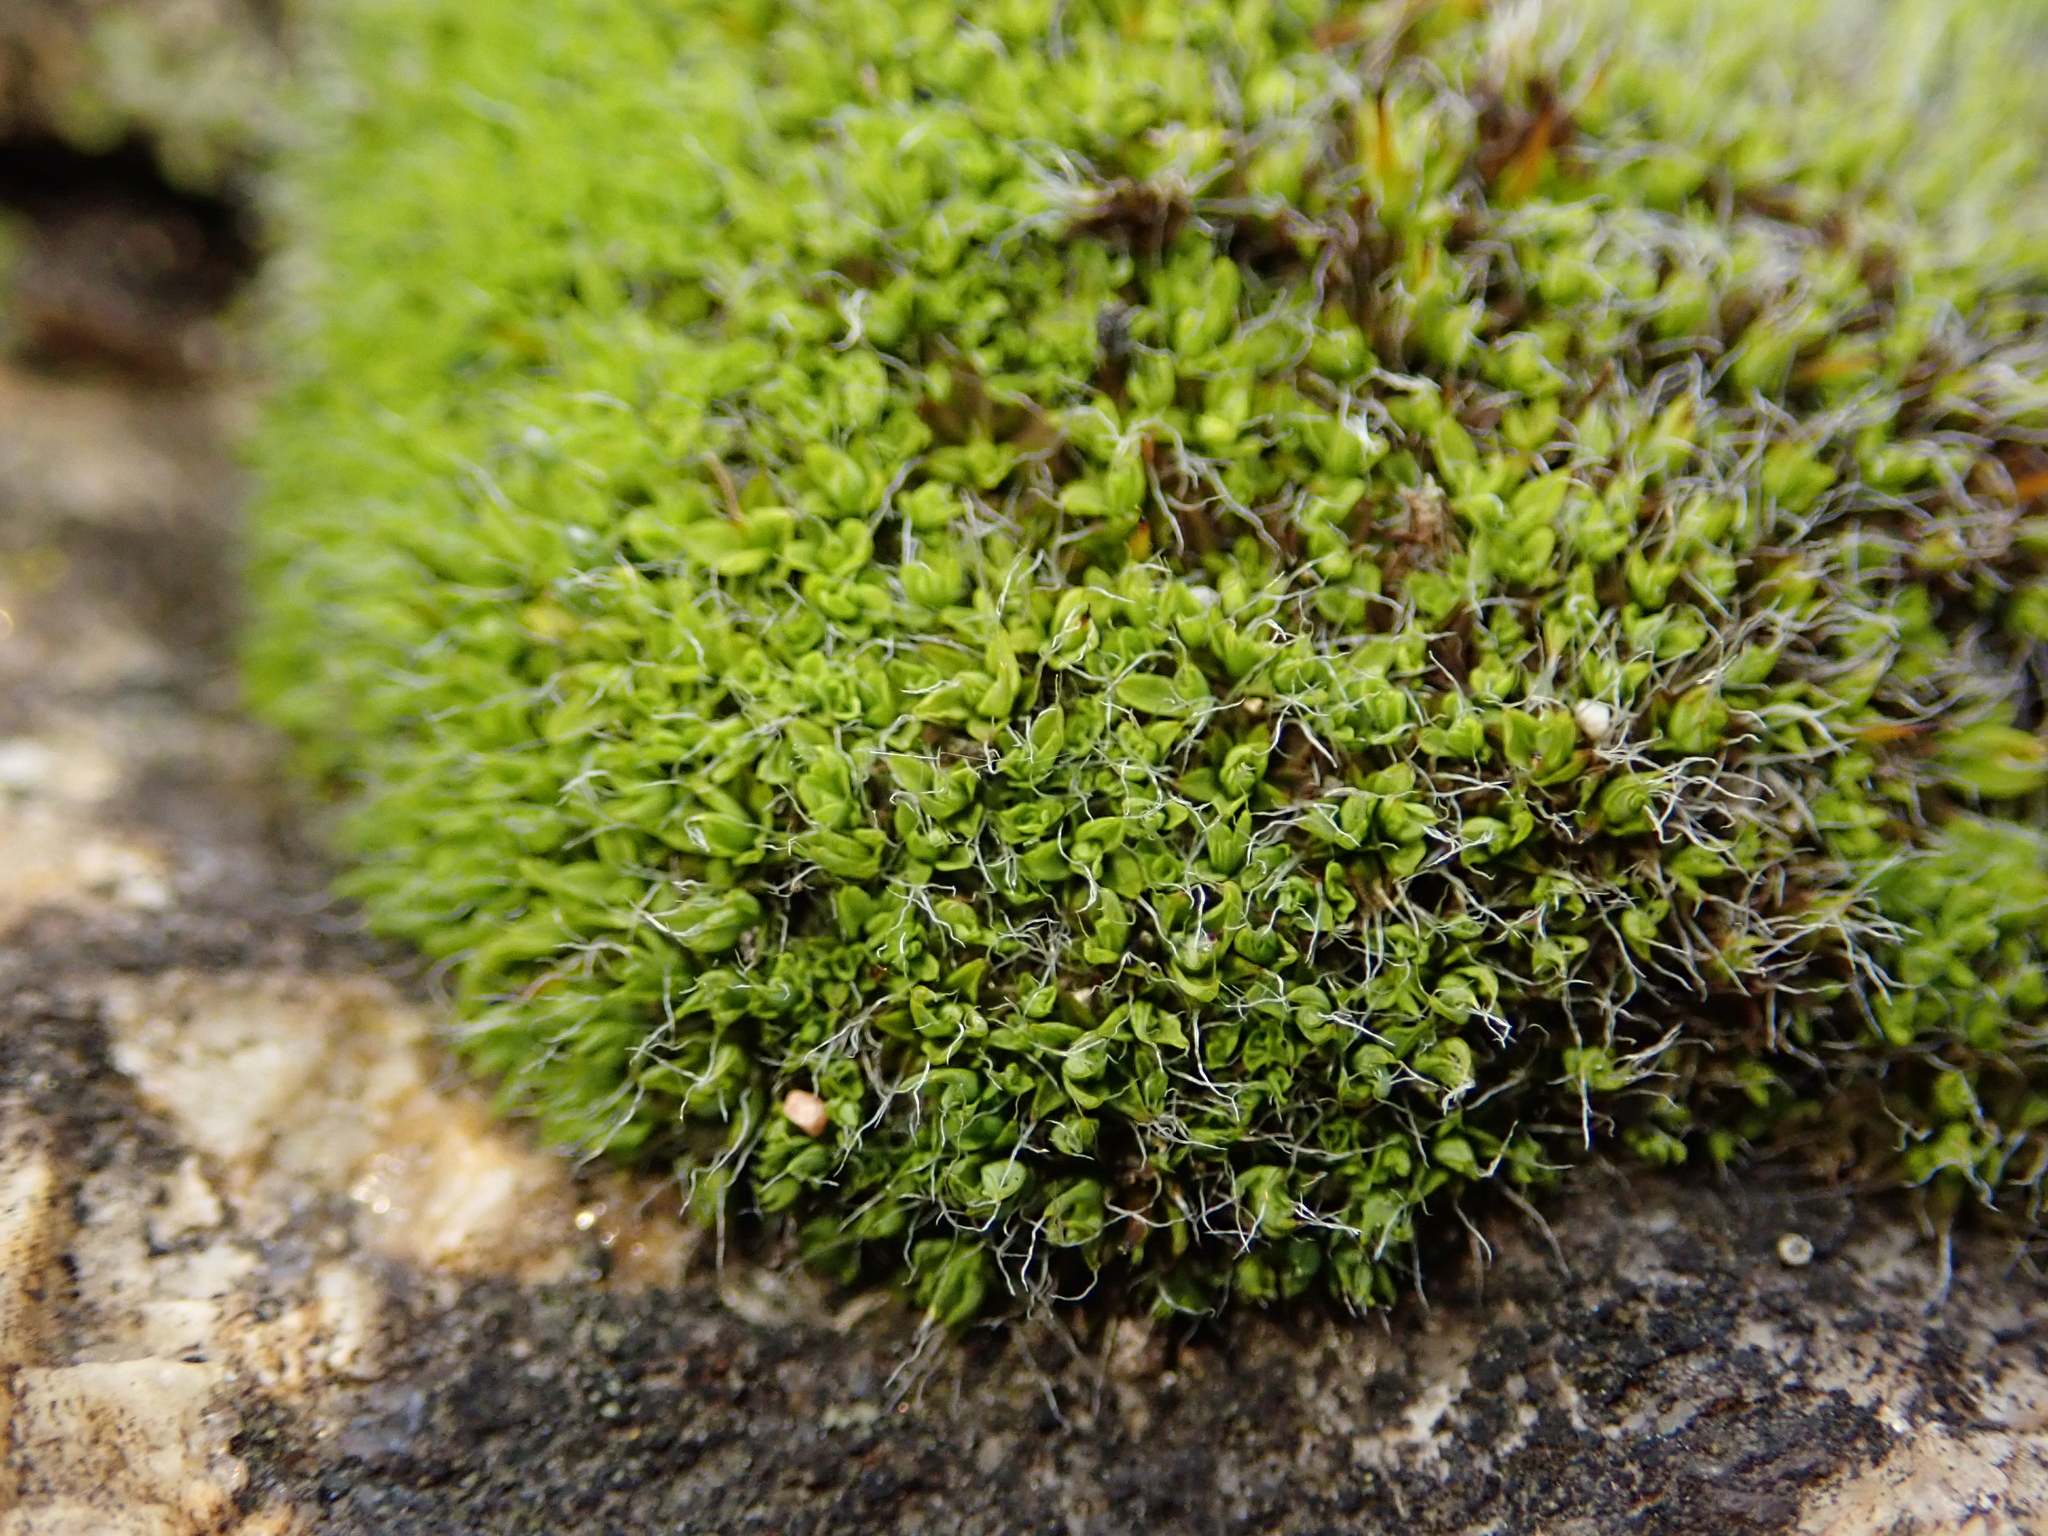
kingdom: Plantae
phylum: Bryophyta
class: Bryopsida
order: Pottiales
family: Pottiaceae
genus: Tortula
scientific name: Tortula muralis
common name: Wall screw-moss
